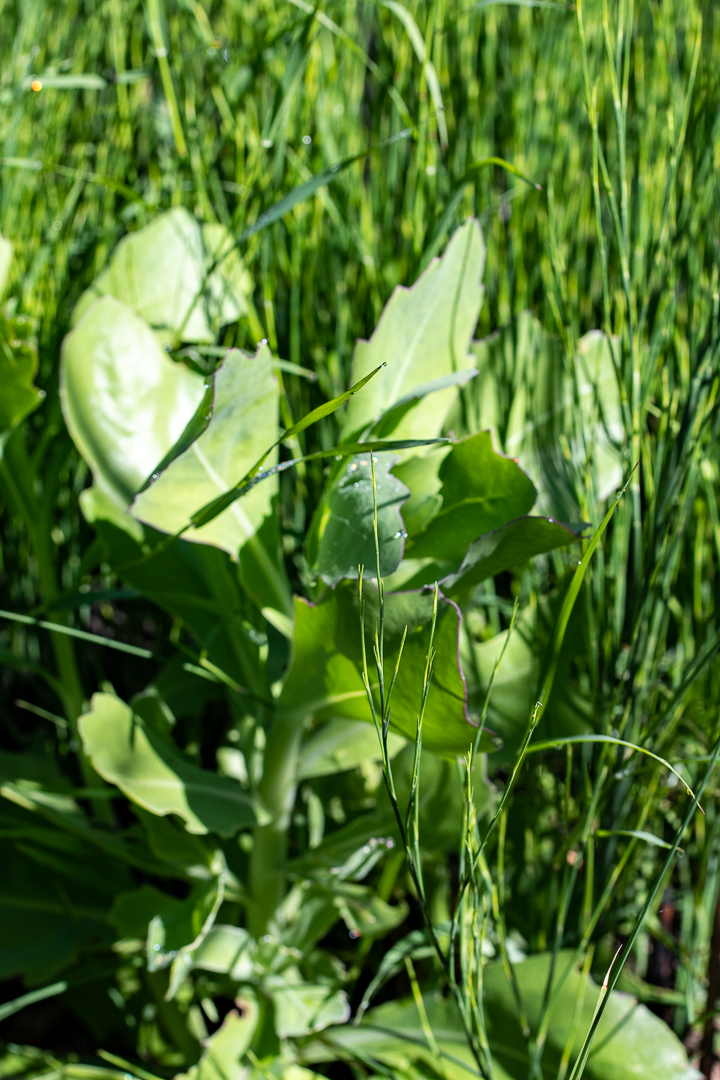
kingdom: Plantae
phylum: Tracheophyta
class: Magnoliopsida
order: Asterales
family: Asteraceae
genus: Othonna
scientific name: Othonna quinquedentata
